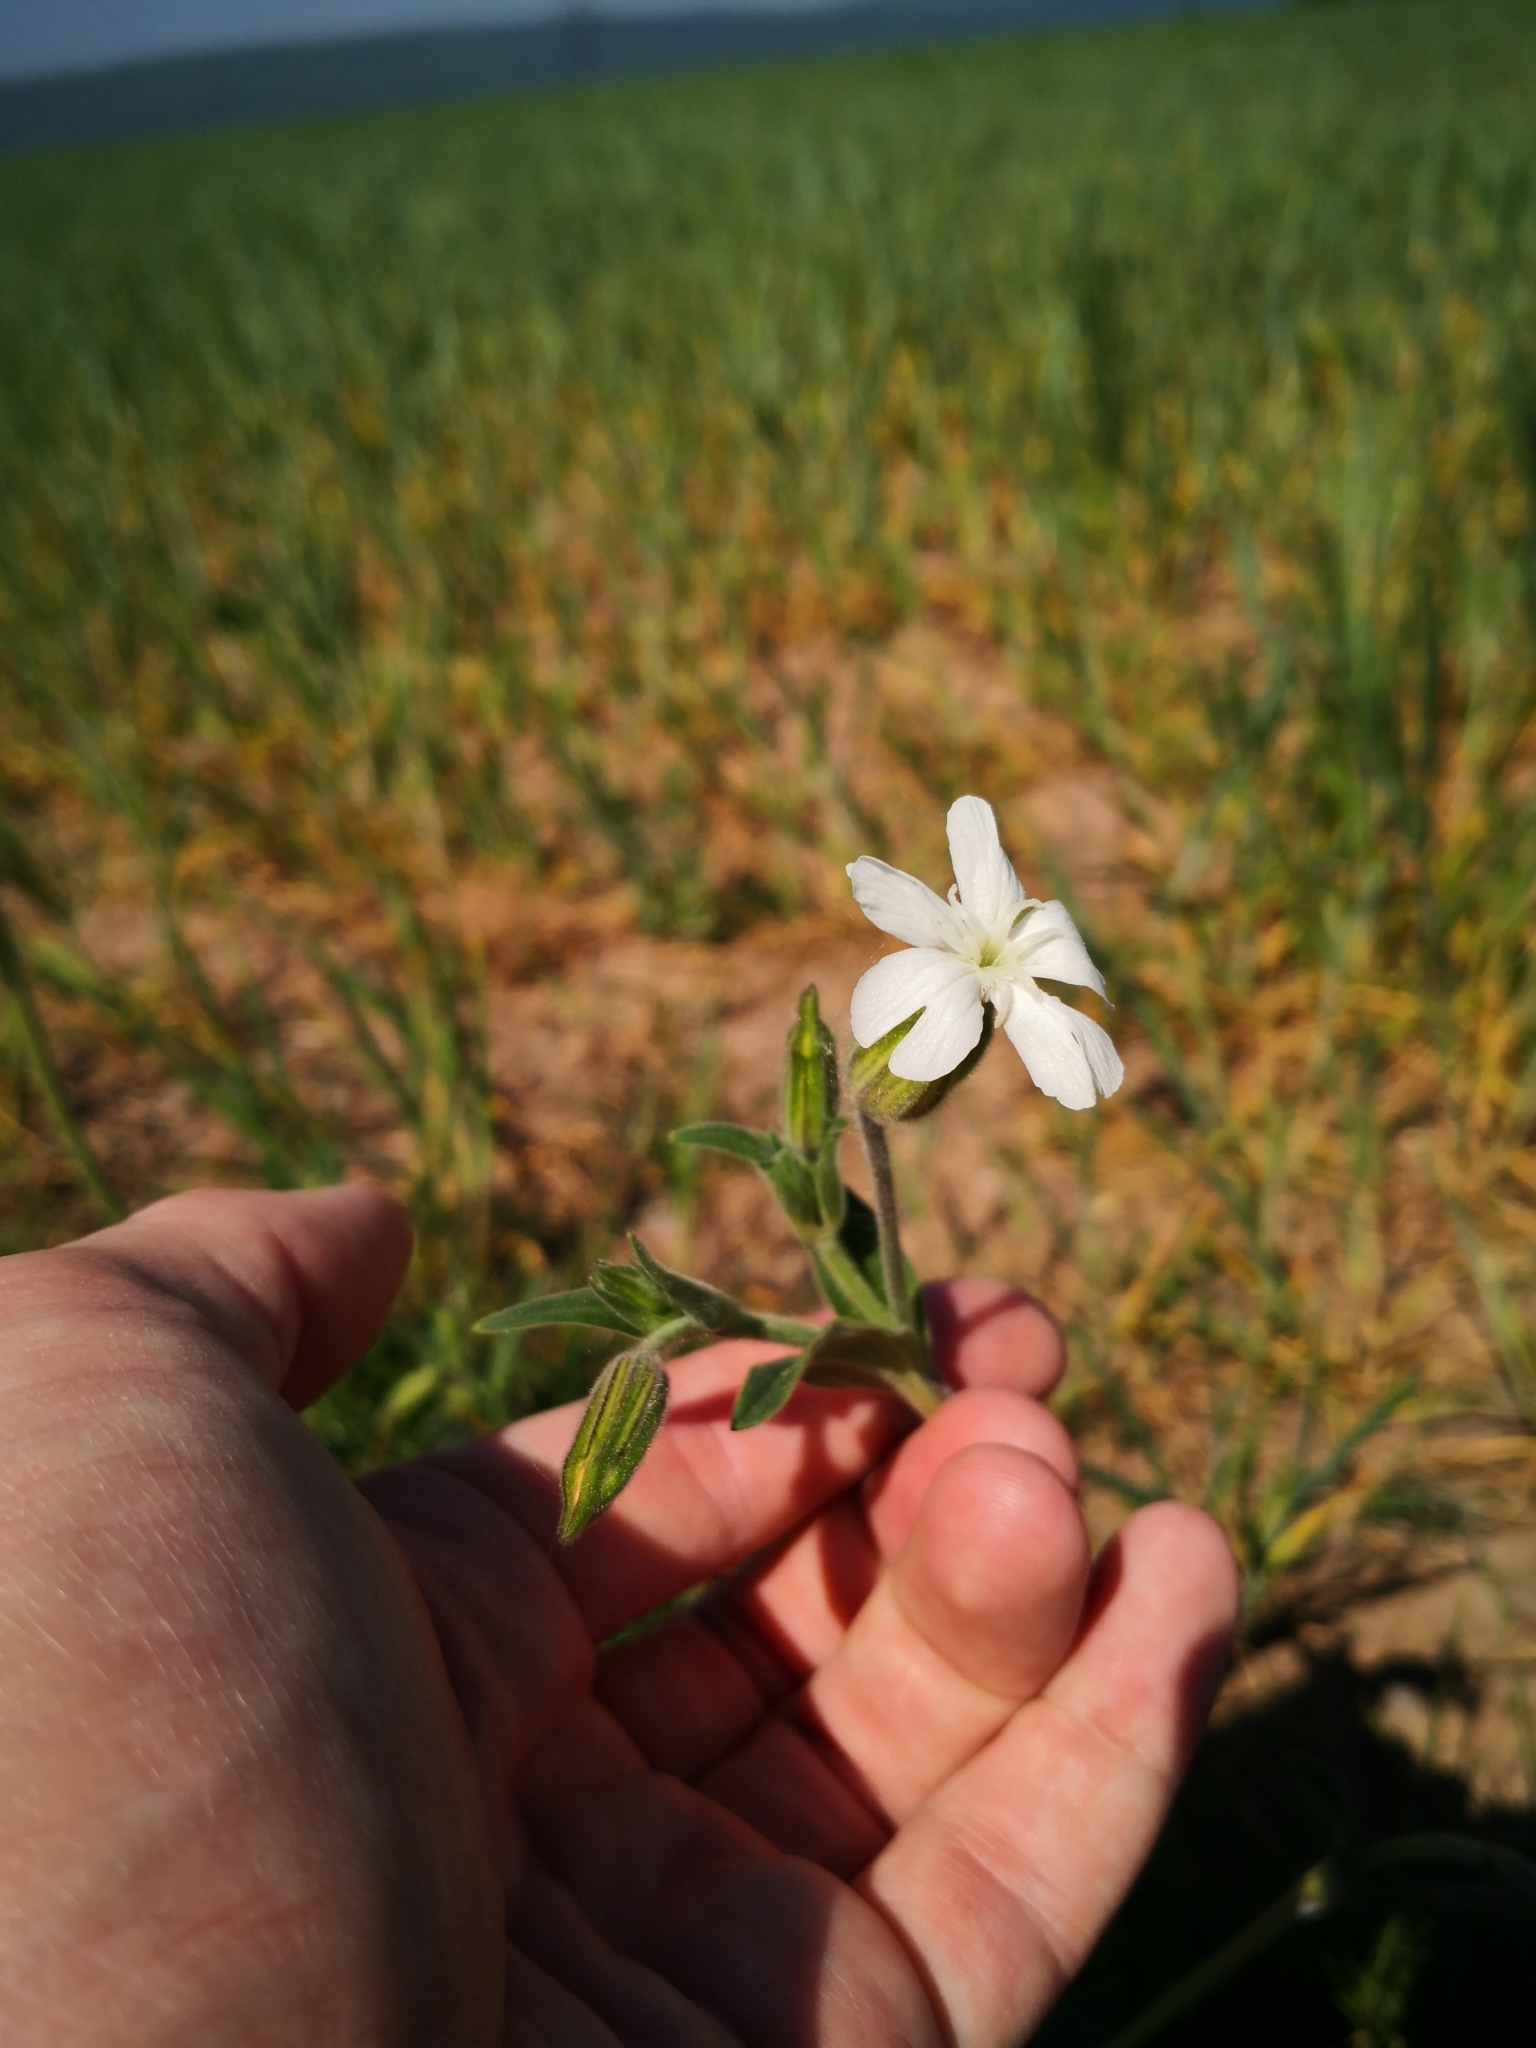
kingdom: Plantae
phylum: Tracheophyta
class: Magnoliopsida
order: Caryophyllales
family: Caryophyllaceae
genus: Silene
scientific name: Silene latifolia
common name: White campion
